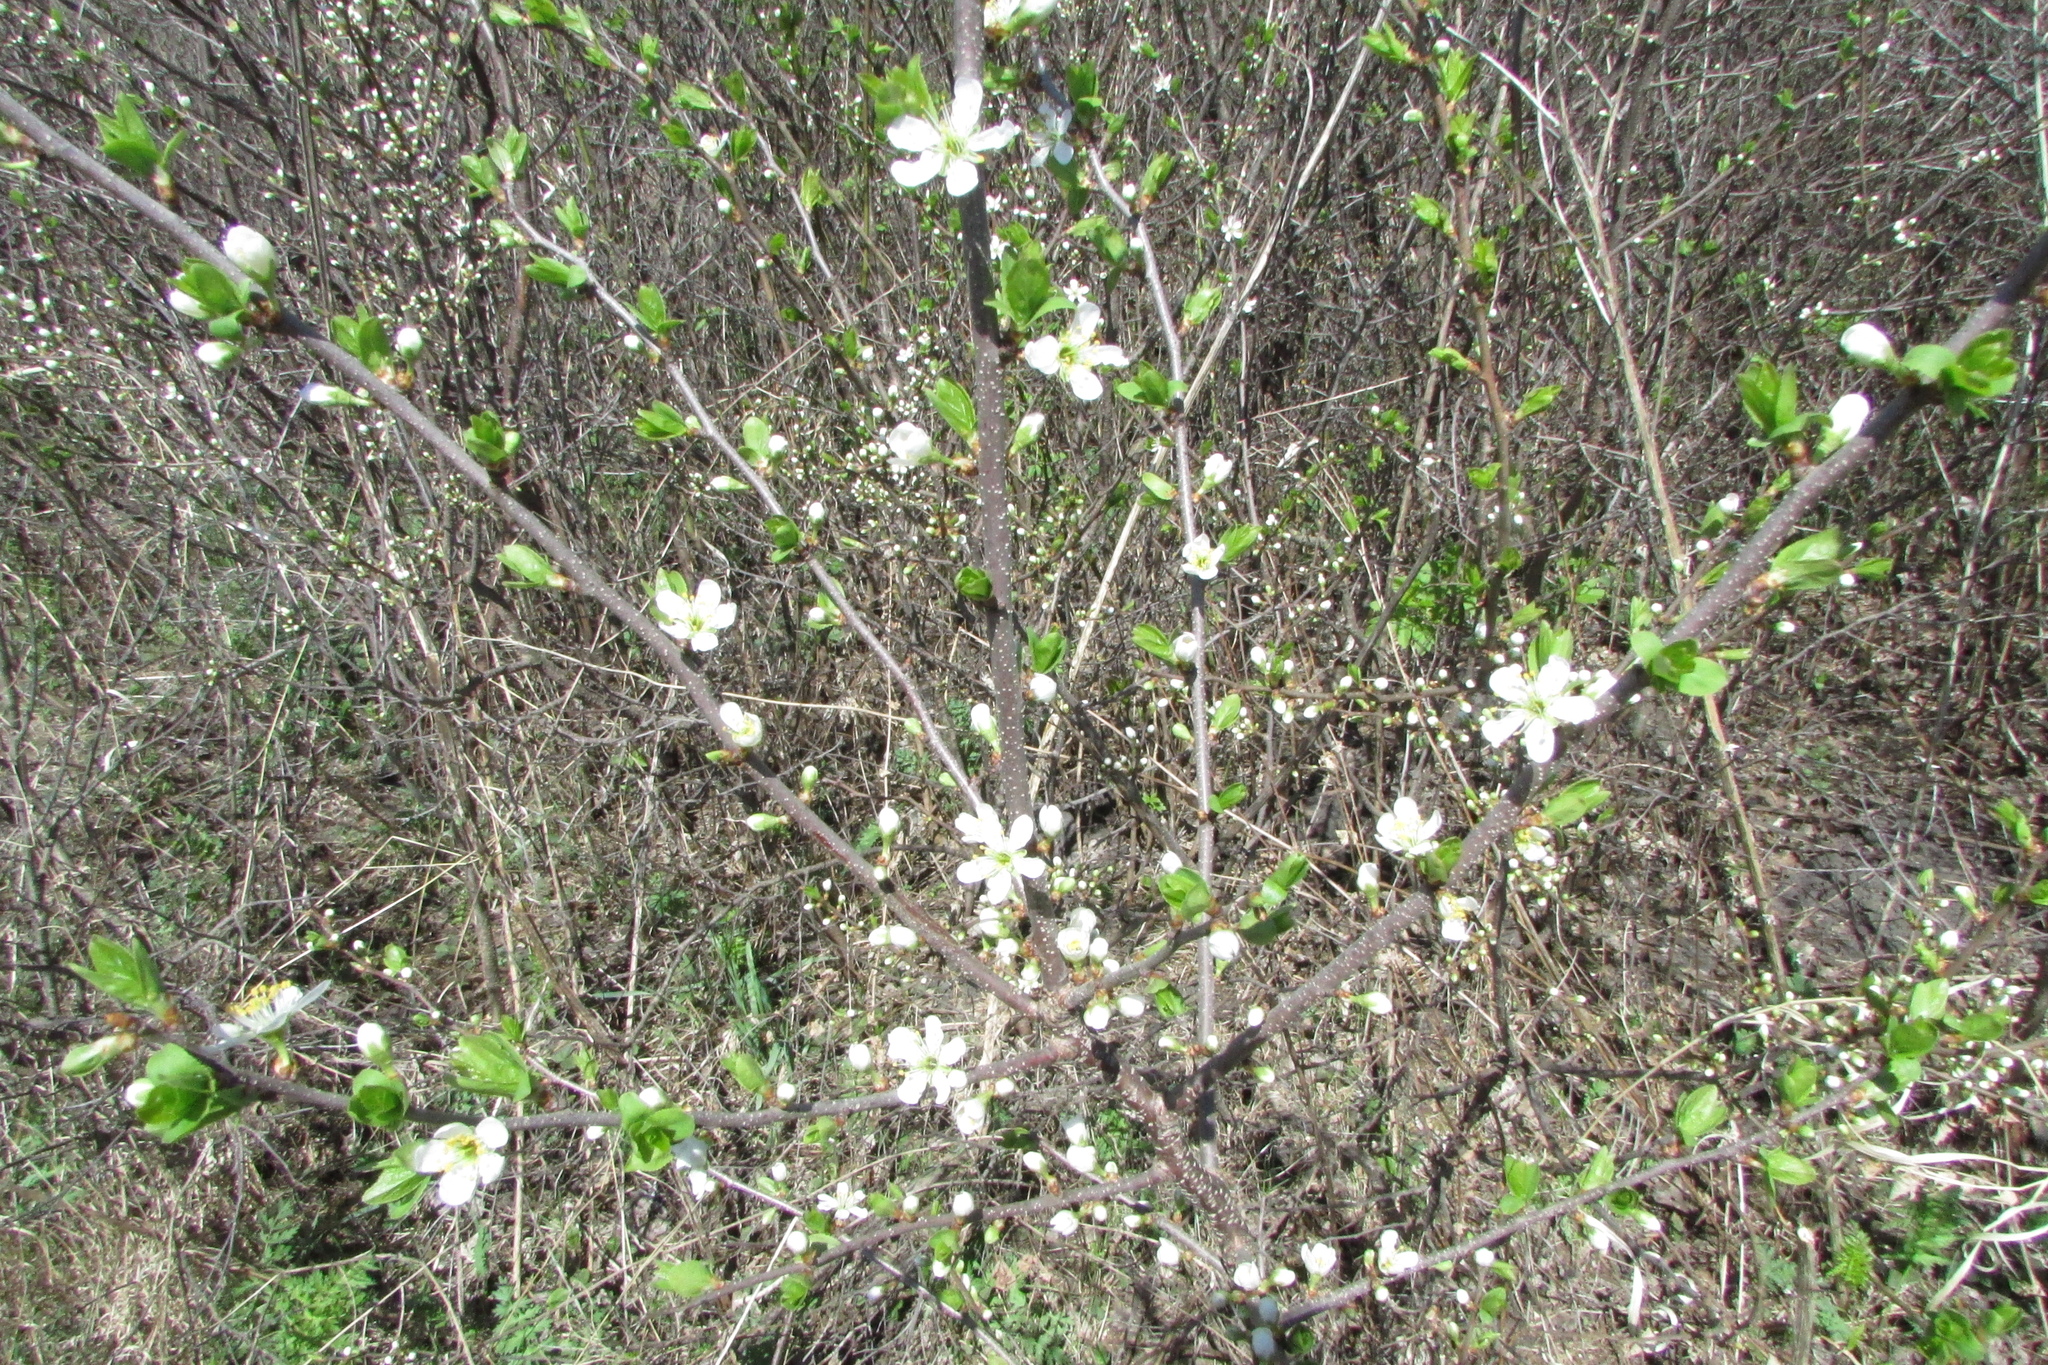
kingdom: Plantae
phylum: Tracheophyta
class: Magnoliopsida
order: Rosales
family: Rosaceae
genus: Prunus
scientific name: Prunus spinosa
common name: Blackthorn
